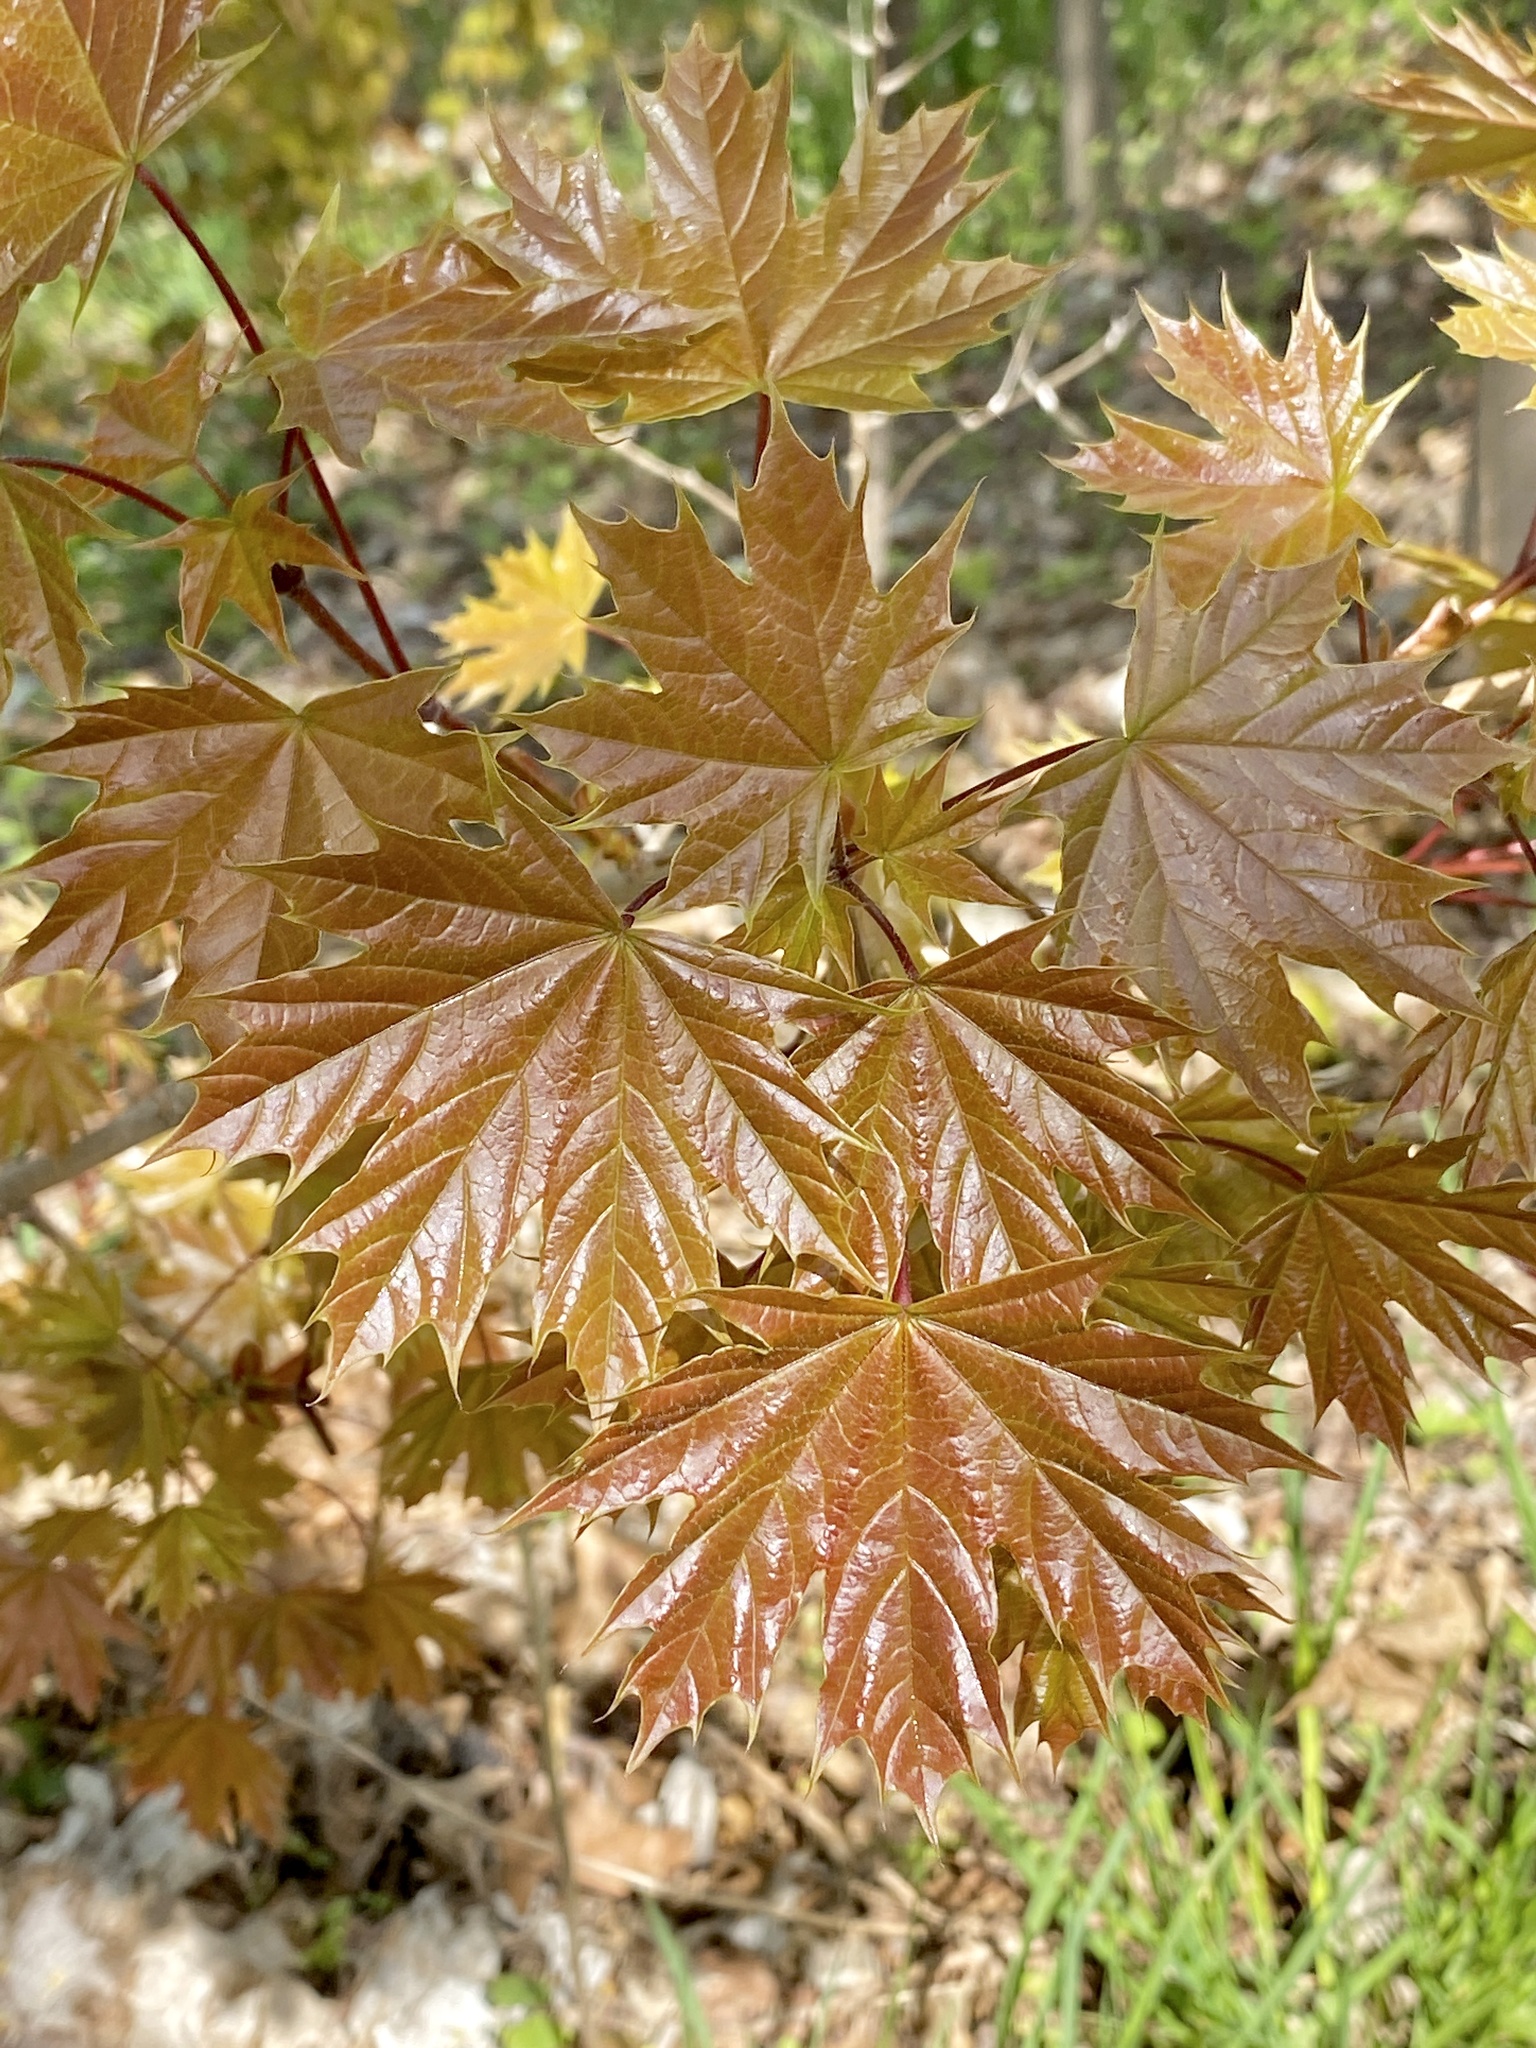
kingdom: Plantae
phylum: Tracheophyta
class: Magnoliopsida
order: Sapindales
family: Sapindaceae
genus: Acer
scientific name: Acer platanoides
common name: Norway maple
